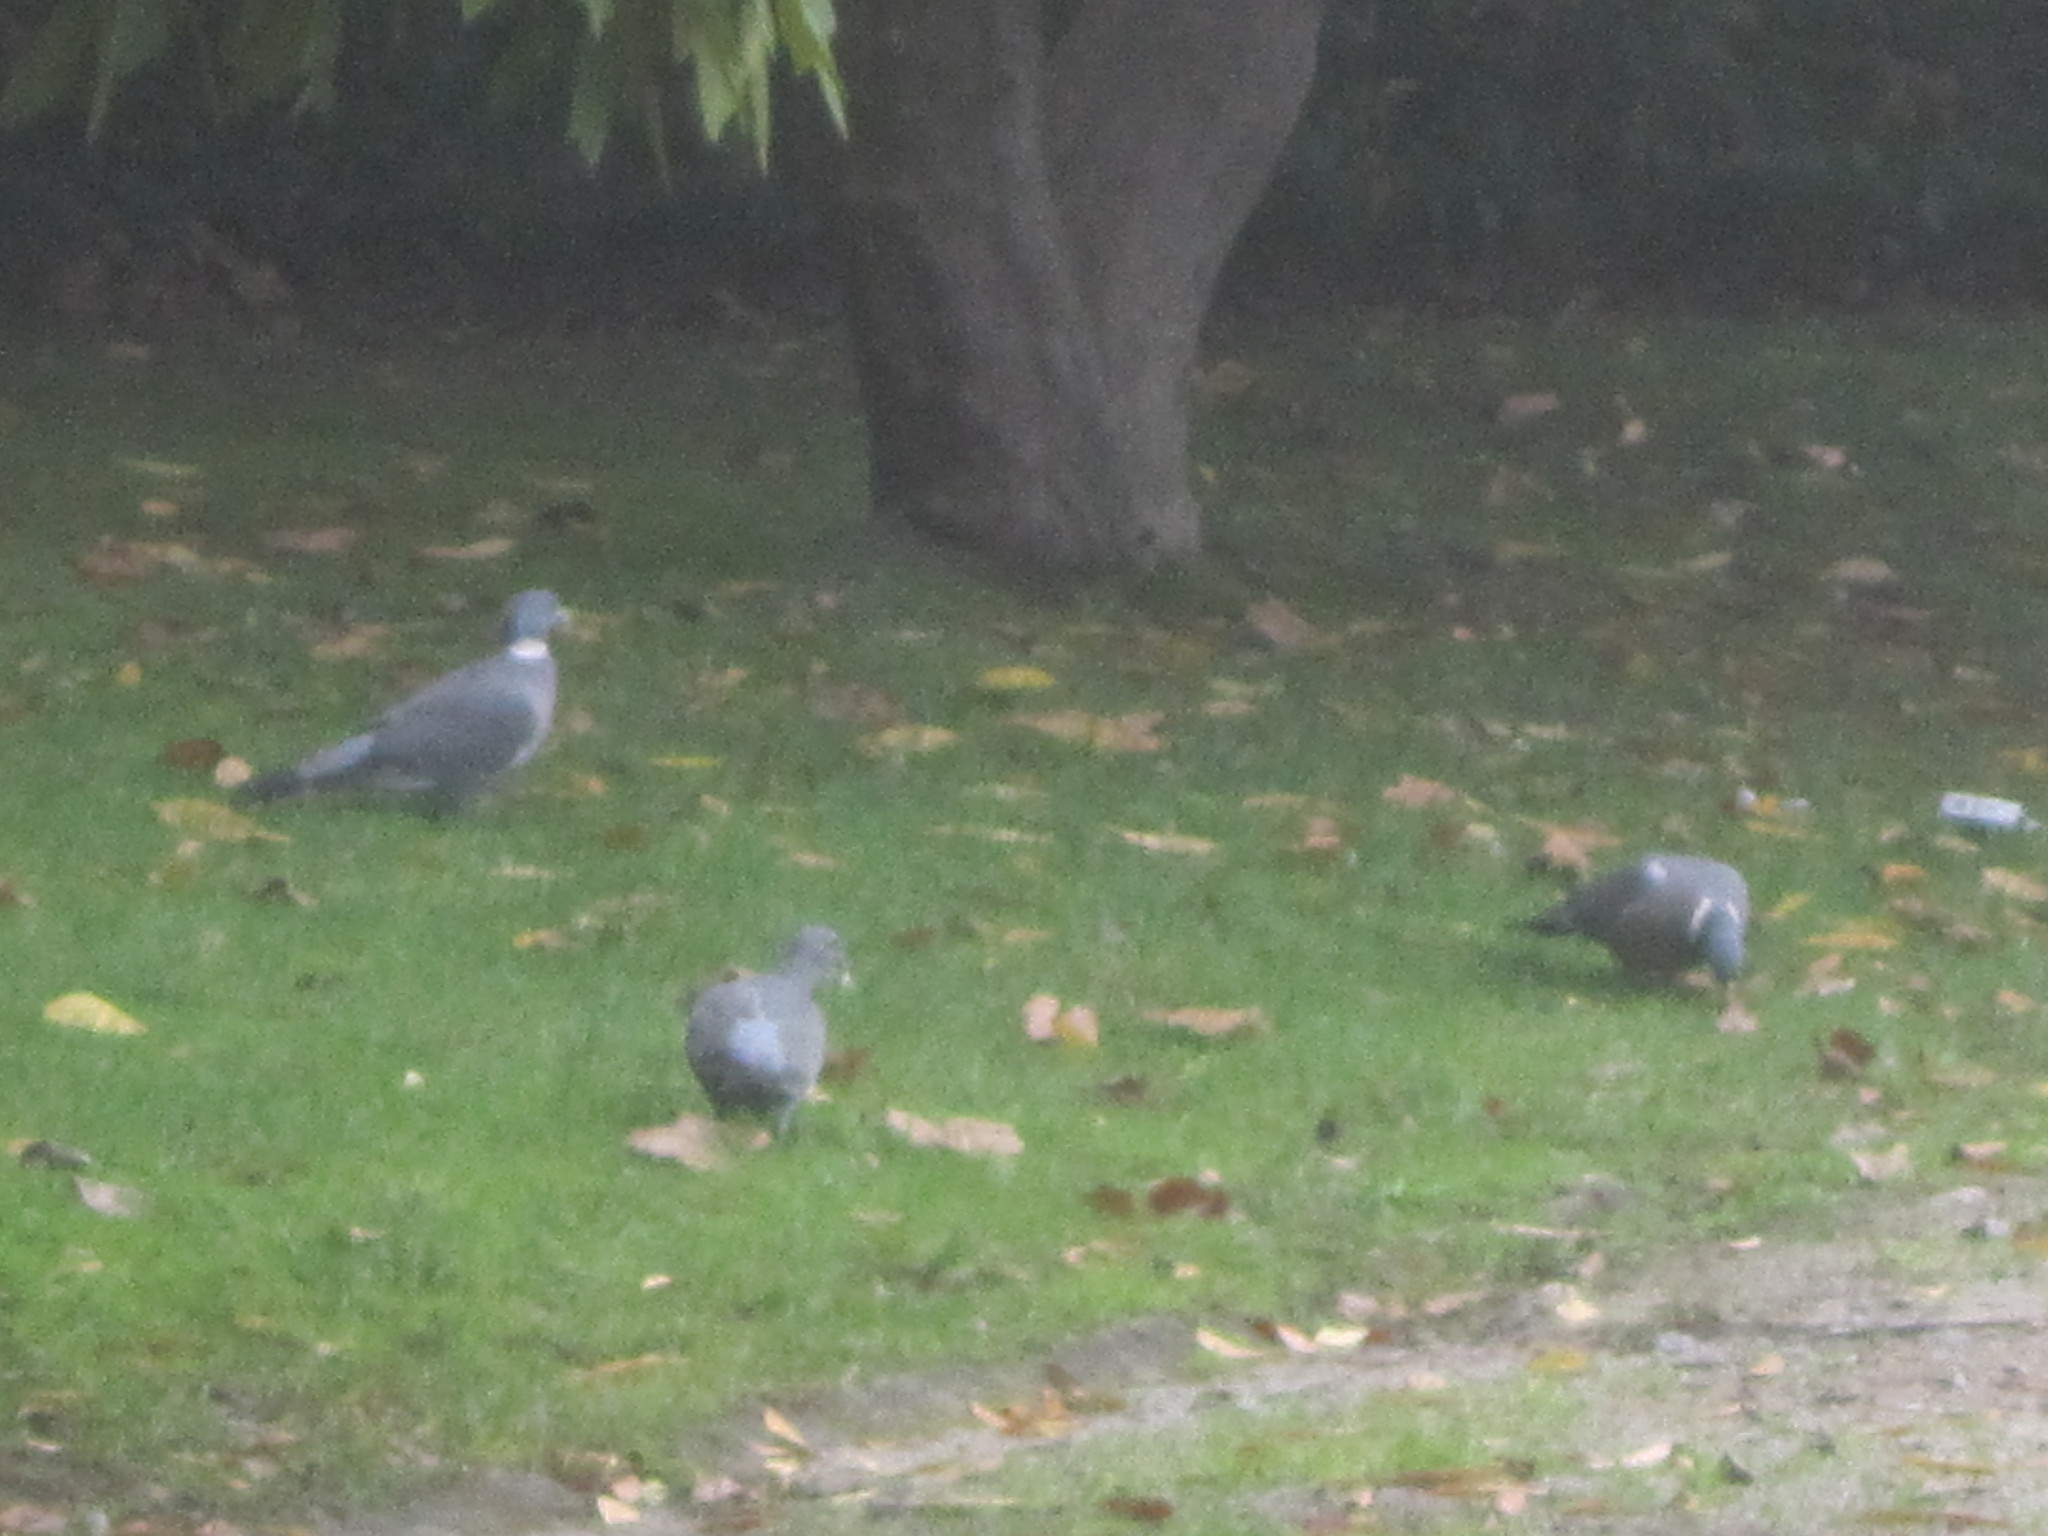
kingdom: Animalia
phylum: Chordata
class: Aves
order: Columbiformes
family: Columbidae
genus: Columba
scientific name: Columba palumbus
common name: Common wood pigeon
